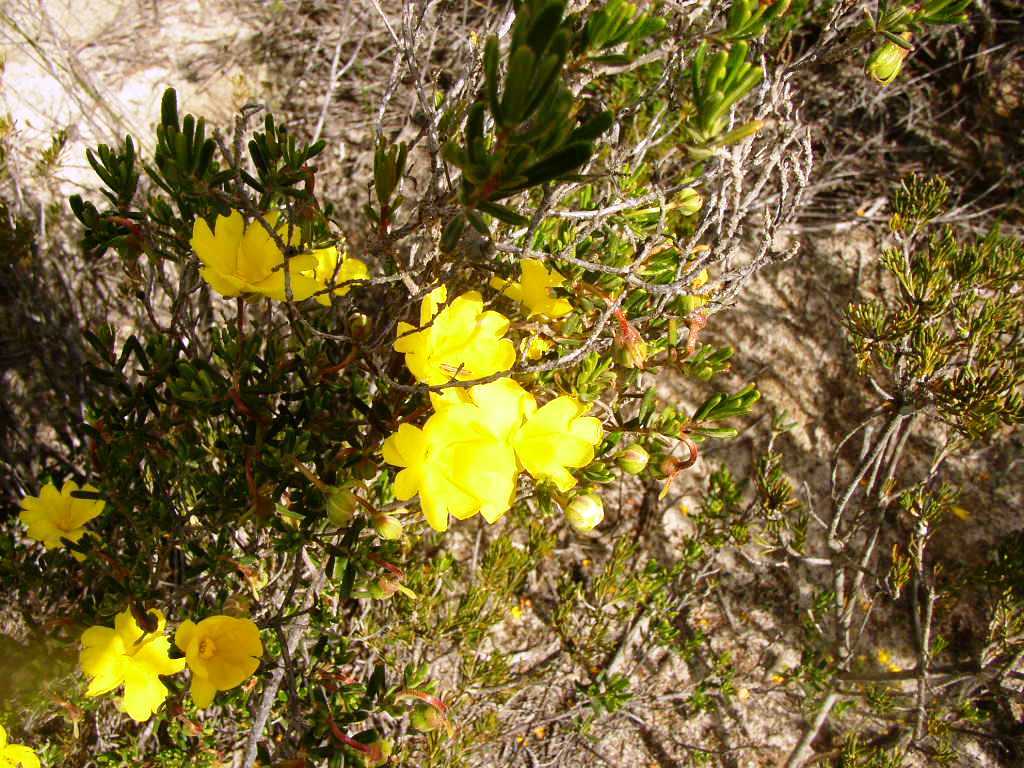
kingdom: Plantae
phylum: Tracheophyta
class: Magnoliopsida
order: Dilleniales
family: Dilleniaceae
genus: Hibbertia
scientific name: Hibbertia hypericoides
